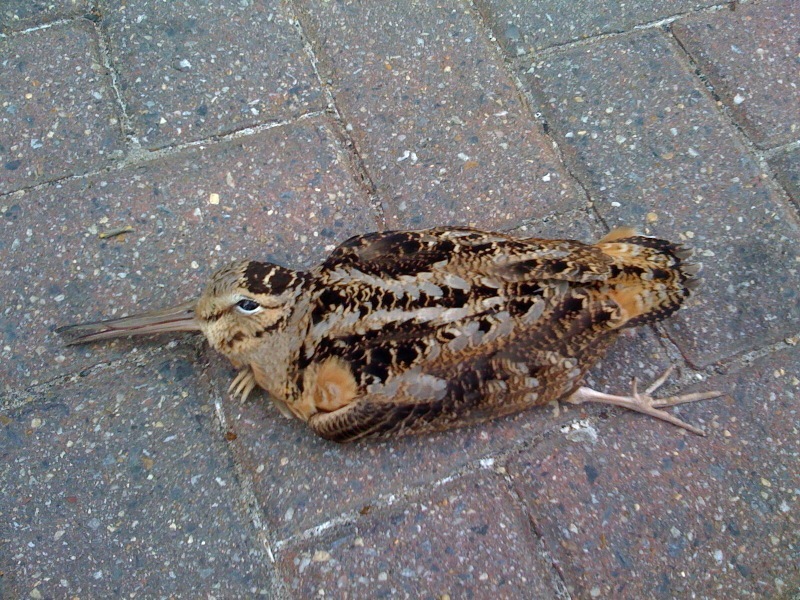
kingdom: Animalia
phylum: Chordata
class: Aves
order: Charadriiformes
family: Scolopacidae
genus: Scolopax
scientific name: Scolopax minor
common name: American woodcock
